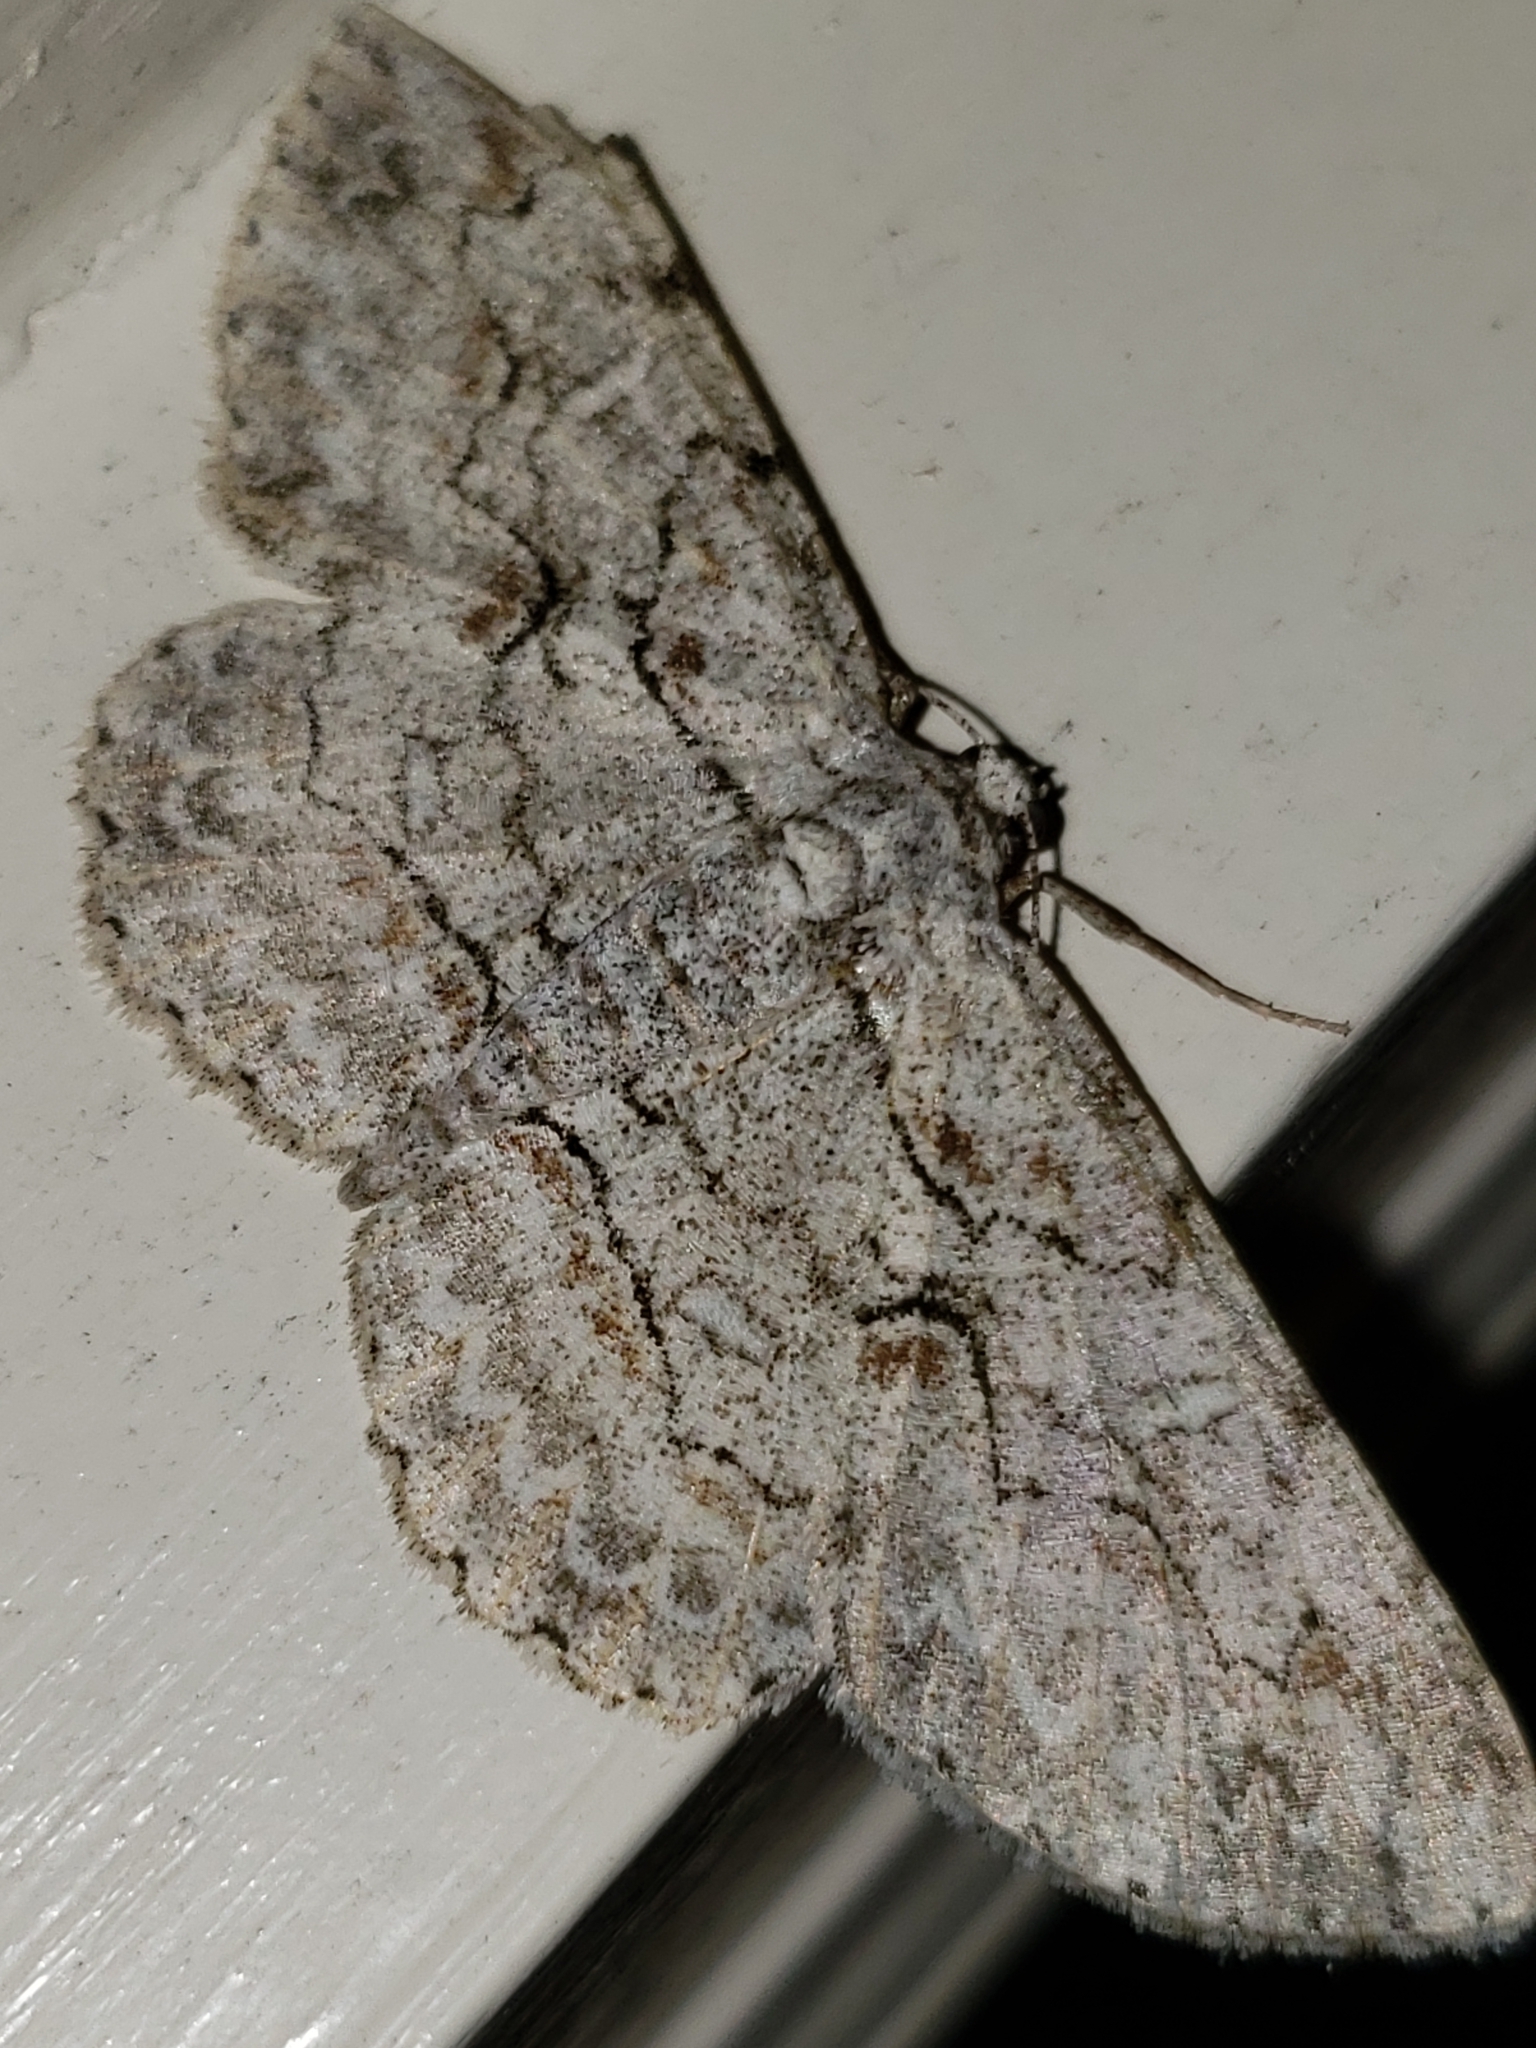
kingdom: Animalia
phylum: Arthropoda
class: Insecta
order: Lepidoptera
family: Geometridae
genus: Iridopsis
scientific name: Iridopsis defectaria
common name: Brown-shaded gray
